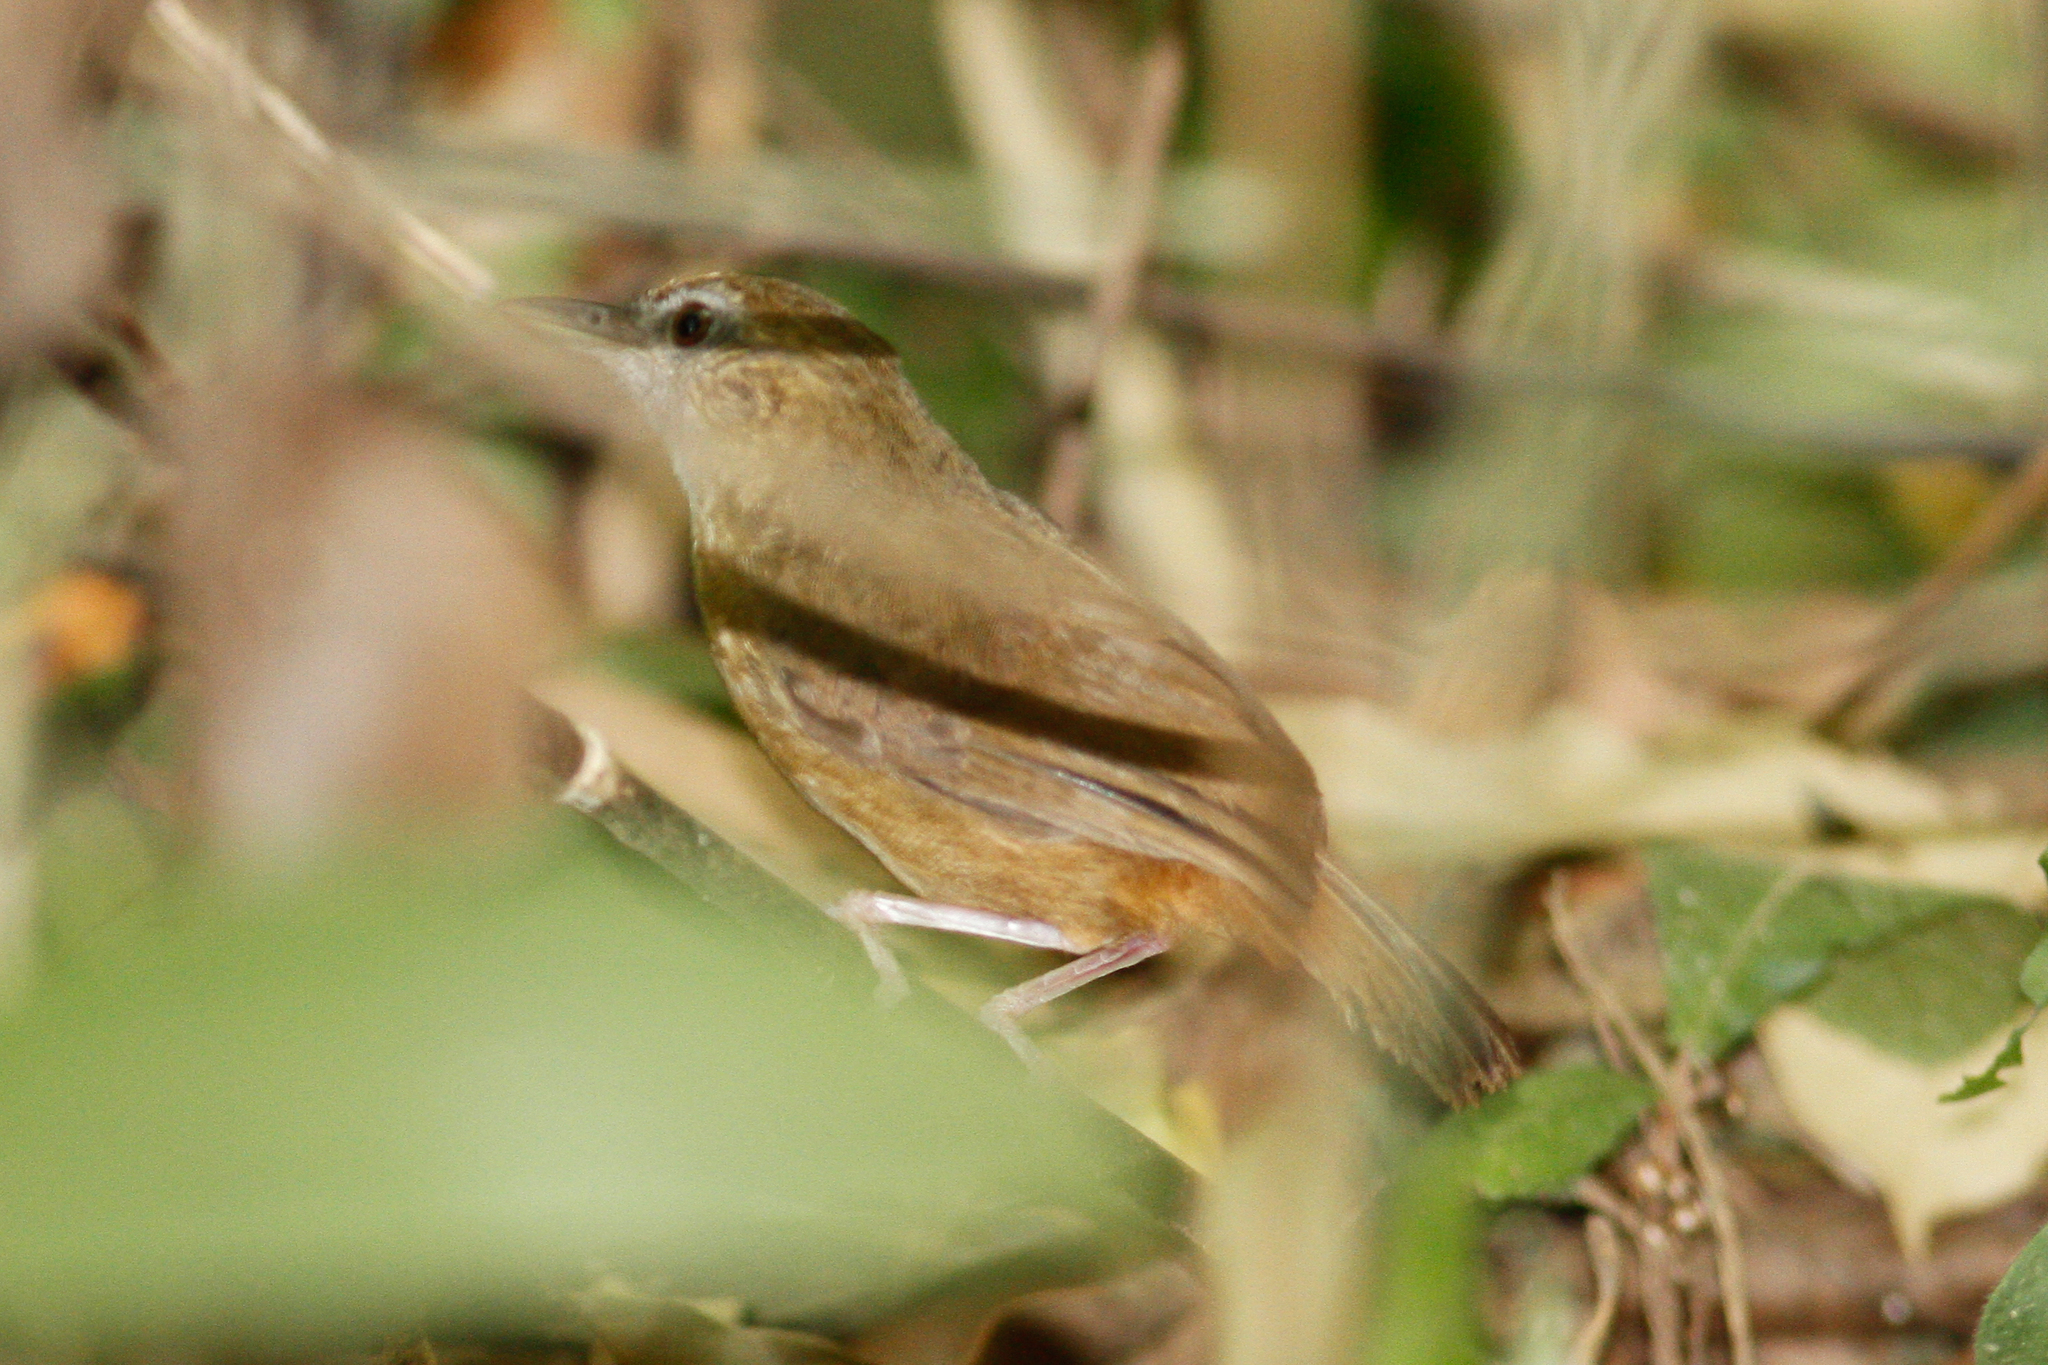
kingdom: Animalia
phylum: Chordata
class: Aves
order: Passeriformes
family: Pellorneidae
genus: Malacocincla
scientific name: Malacocincla abbotti
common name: Abbott's babbler
